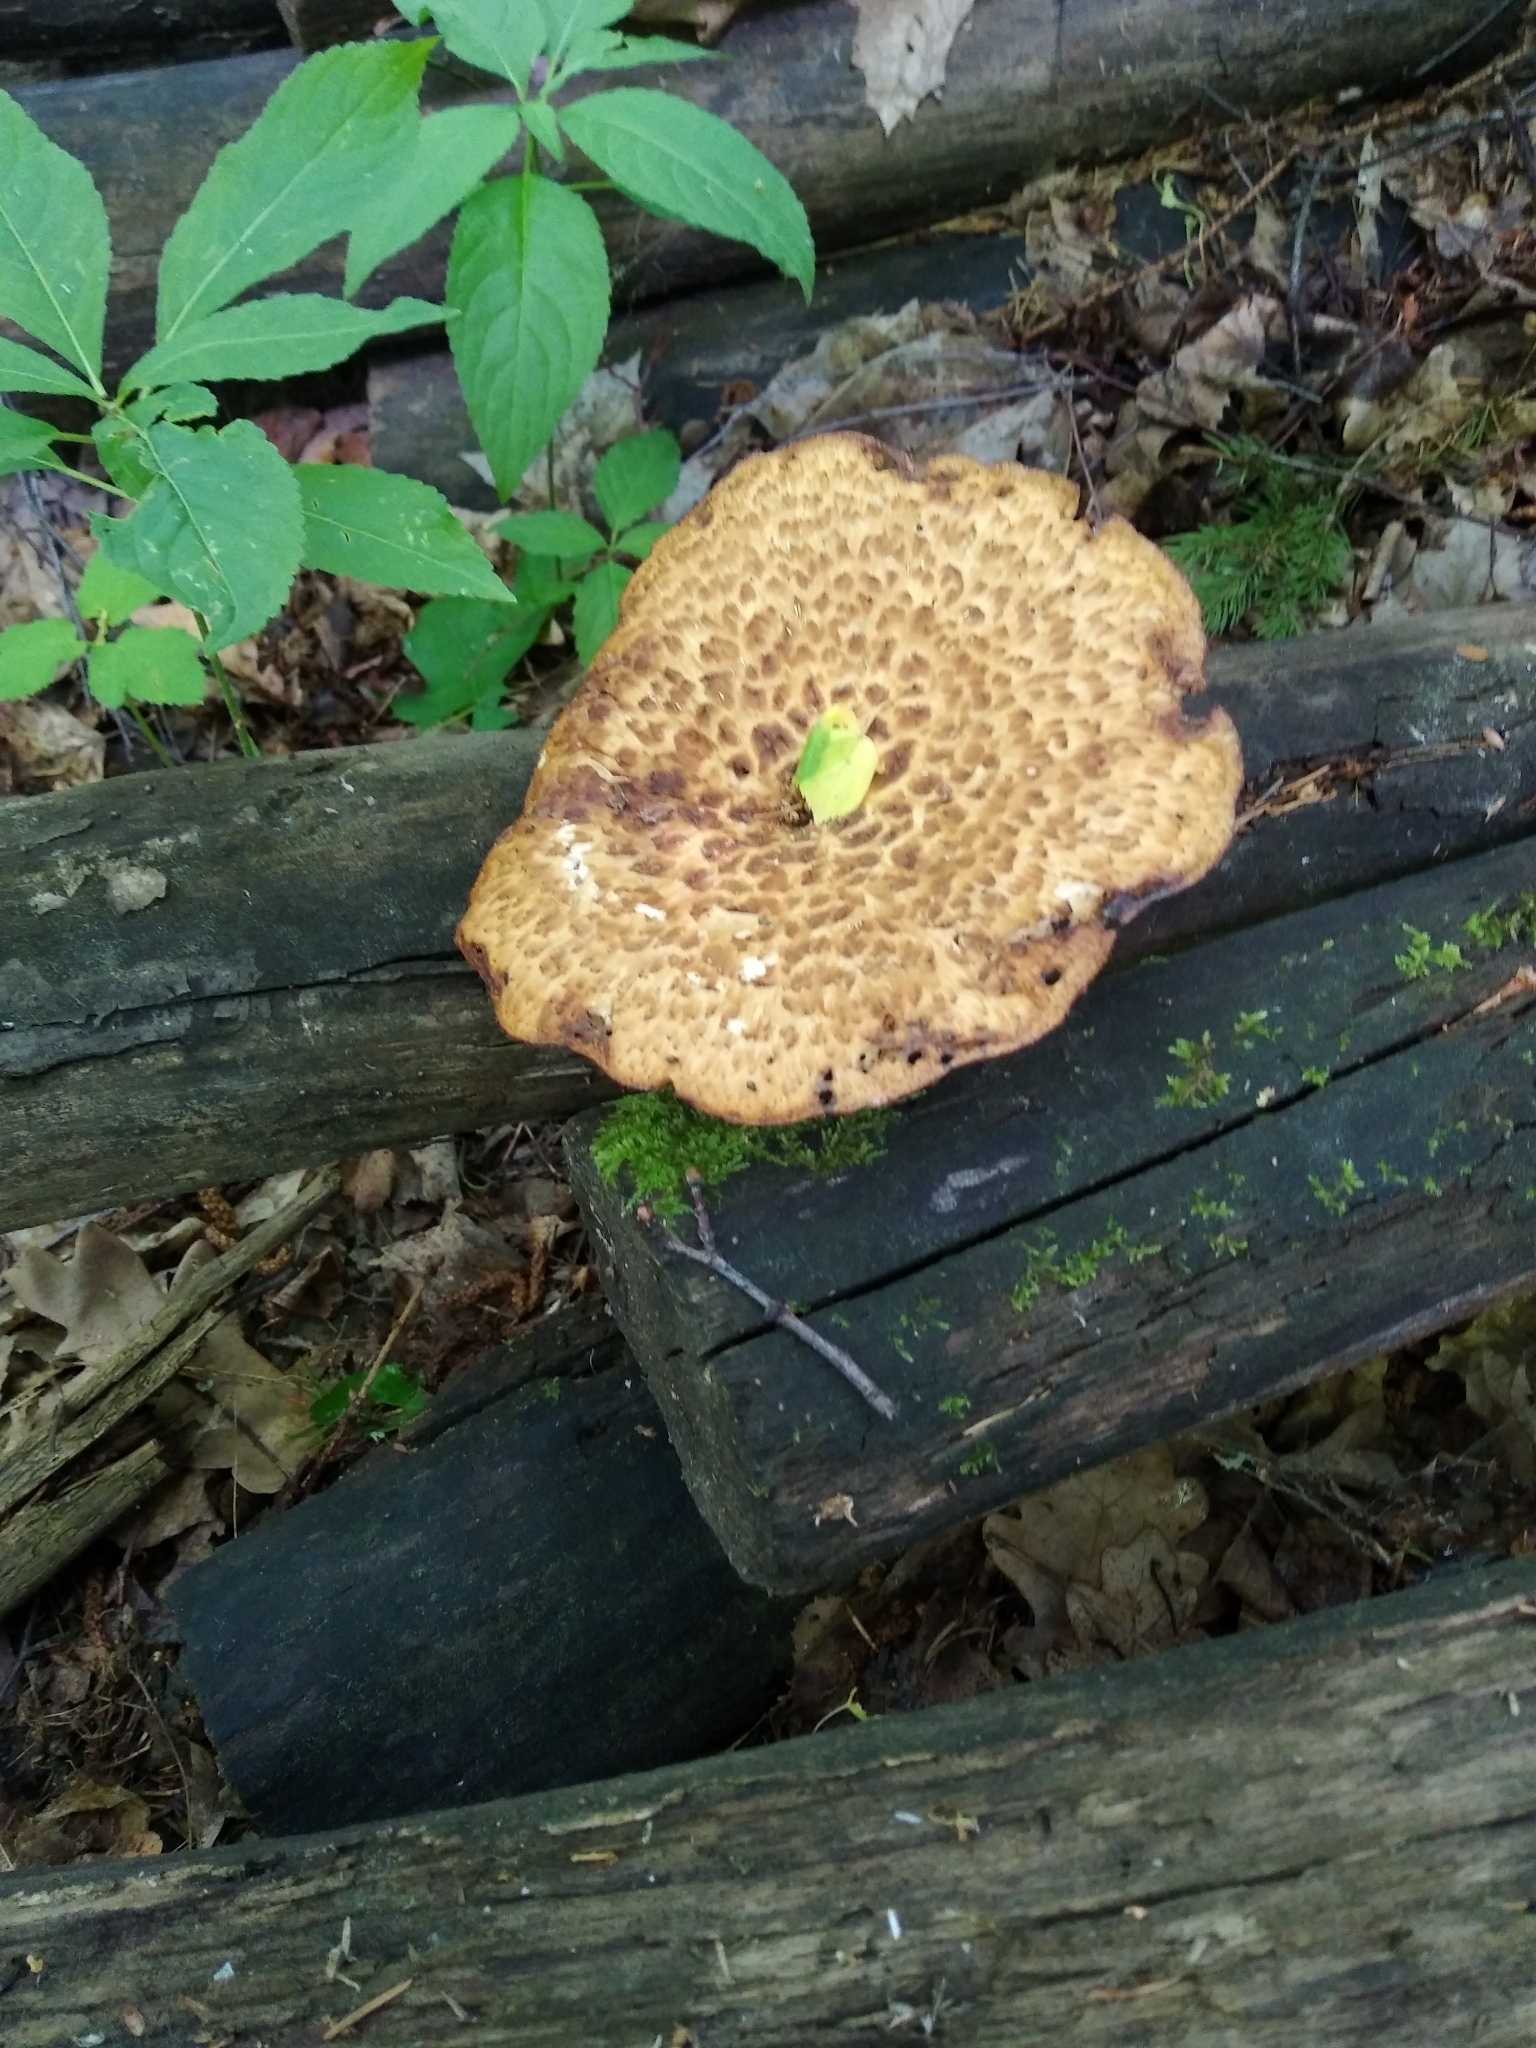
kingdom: Fungi
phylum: Basidiomycota
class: Agaricomycetes
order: Polyporales
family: Polyporaceae
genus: Polyporus
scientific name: Polyporus tuberaster
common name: Tuberous polypore
